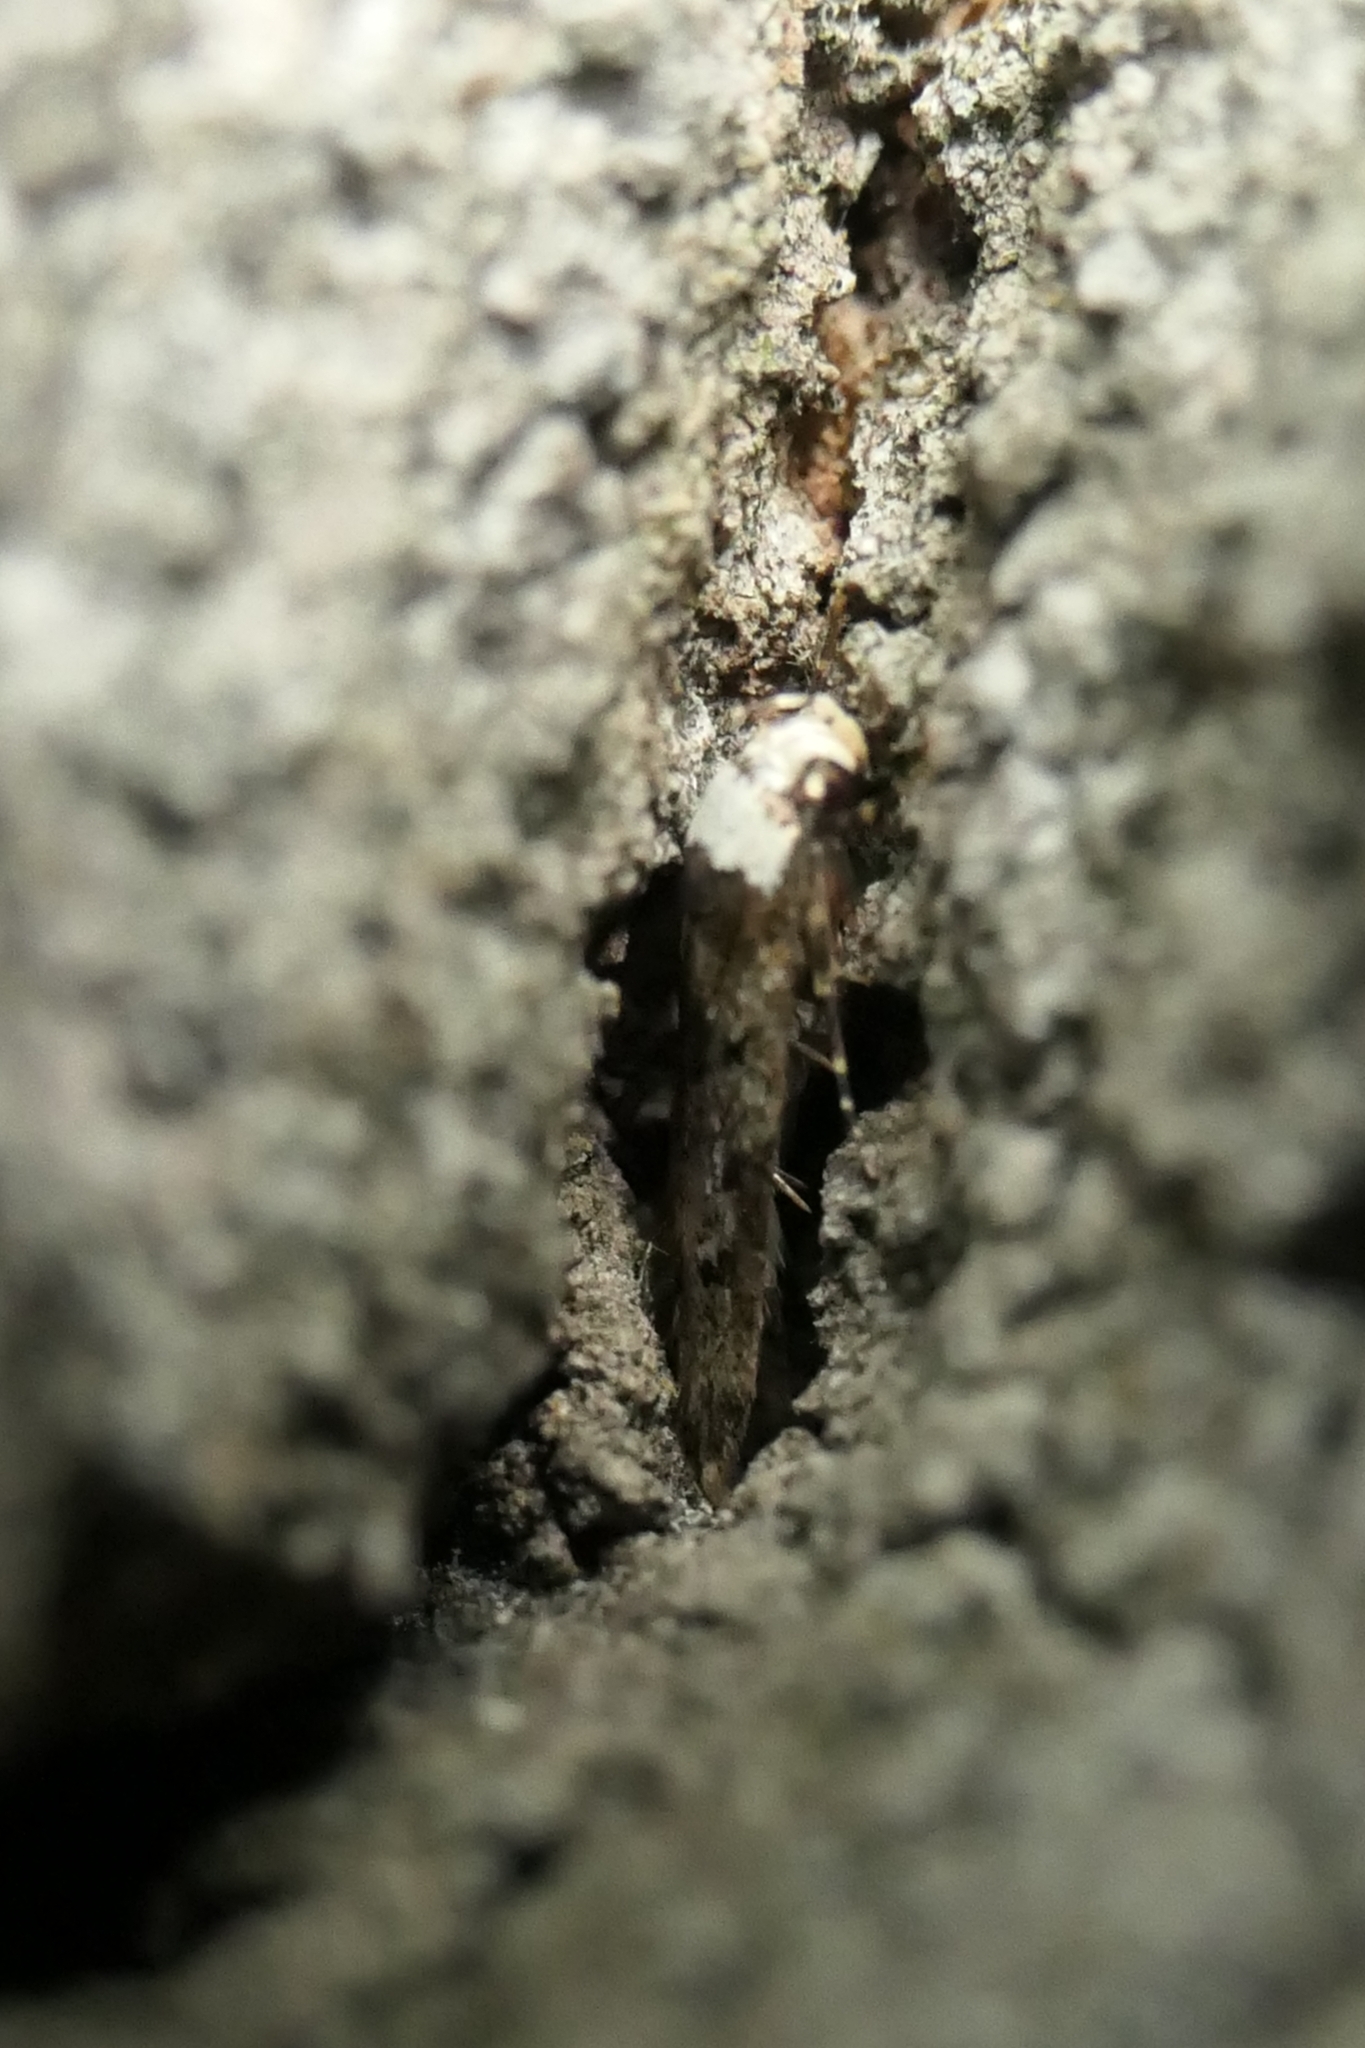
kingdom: Animalia
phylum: Arthropoda
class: Insecta
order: Lepidoptera
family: Oecophoridae
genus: Endrosis
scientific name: Endrosis sarcitrella
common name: White-shouldered house moth
